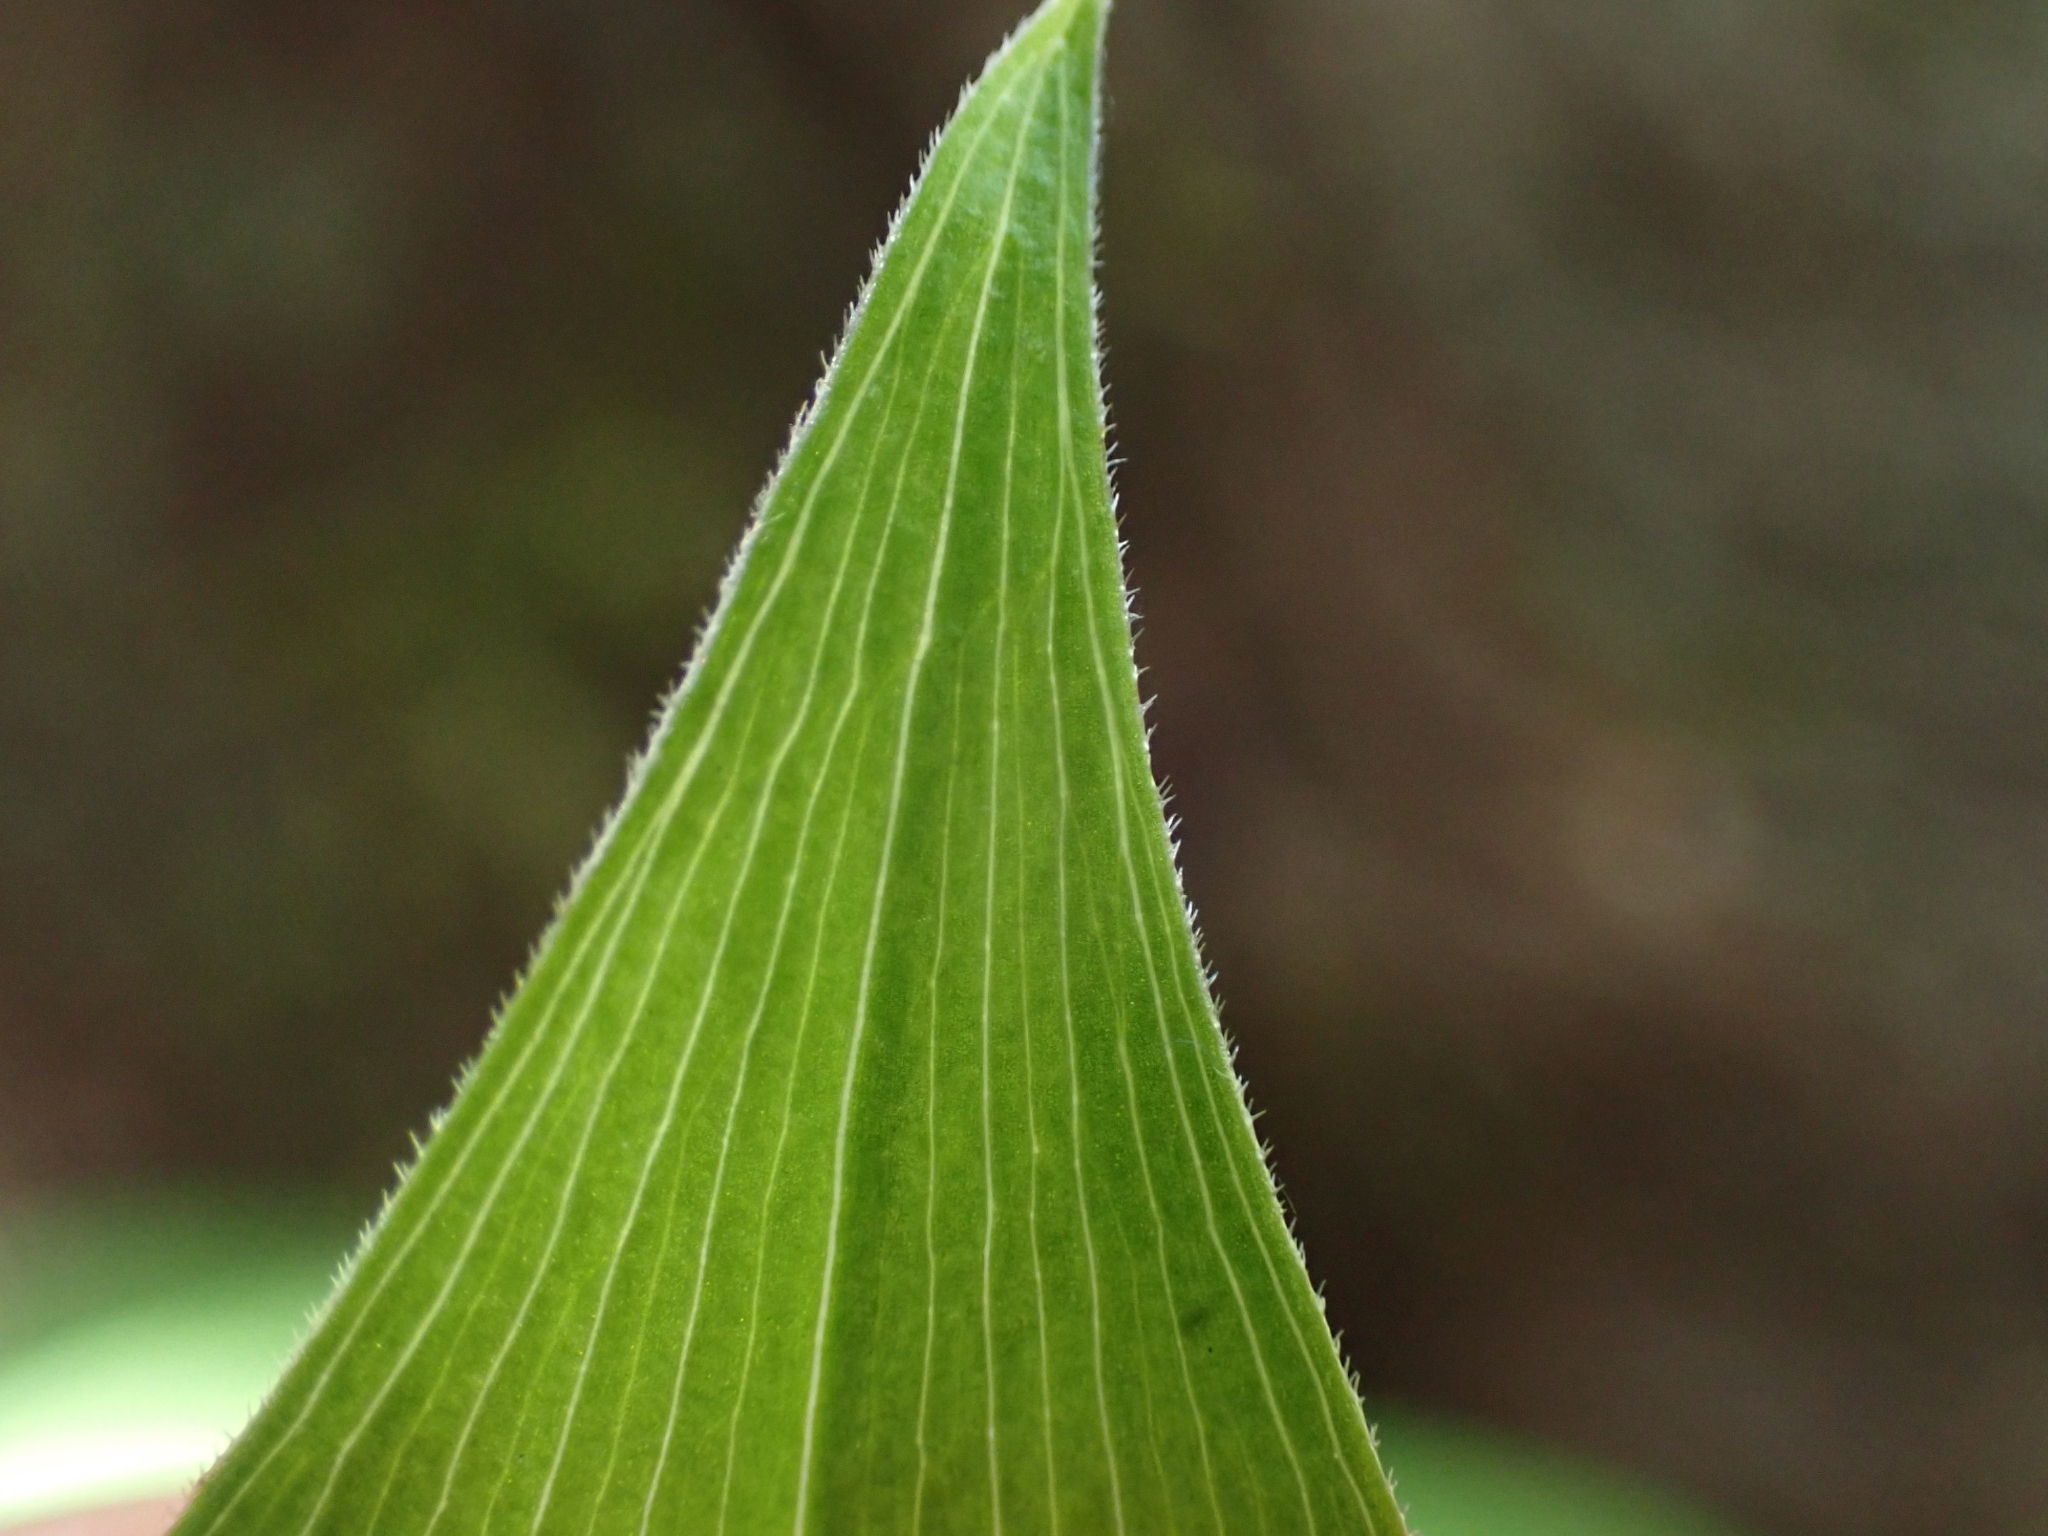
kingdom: Plantae
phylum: Tracheophyta
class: Liliopsida
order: Asparagales
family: Asparagaceae
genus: Maianthemum
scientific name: Maianthemum racemosum
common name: False spikenard
